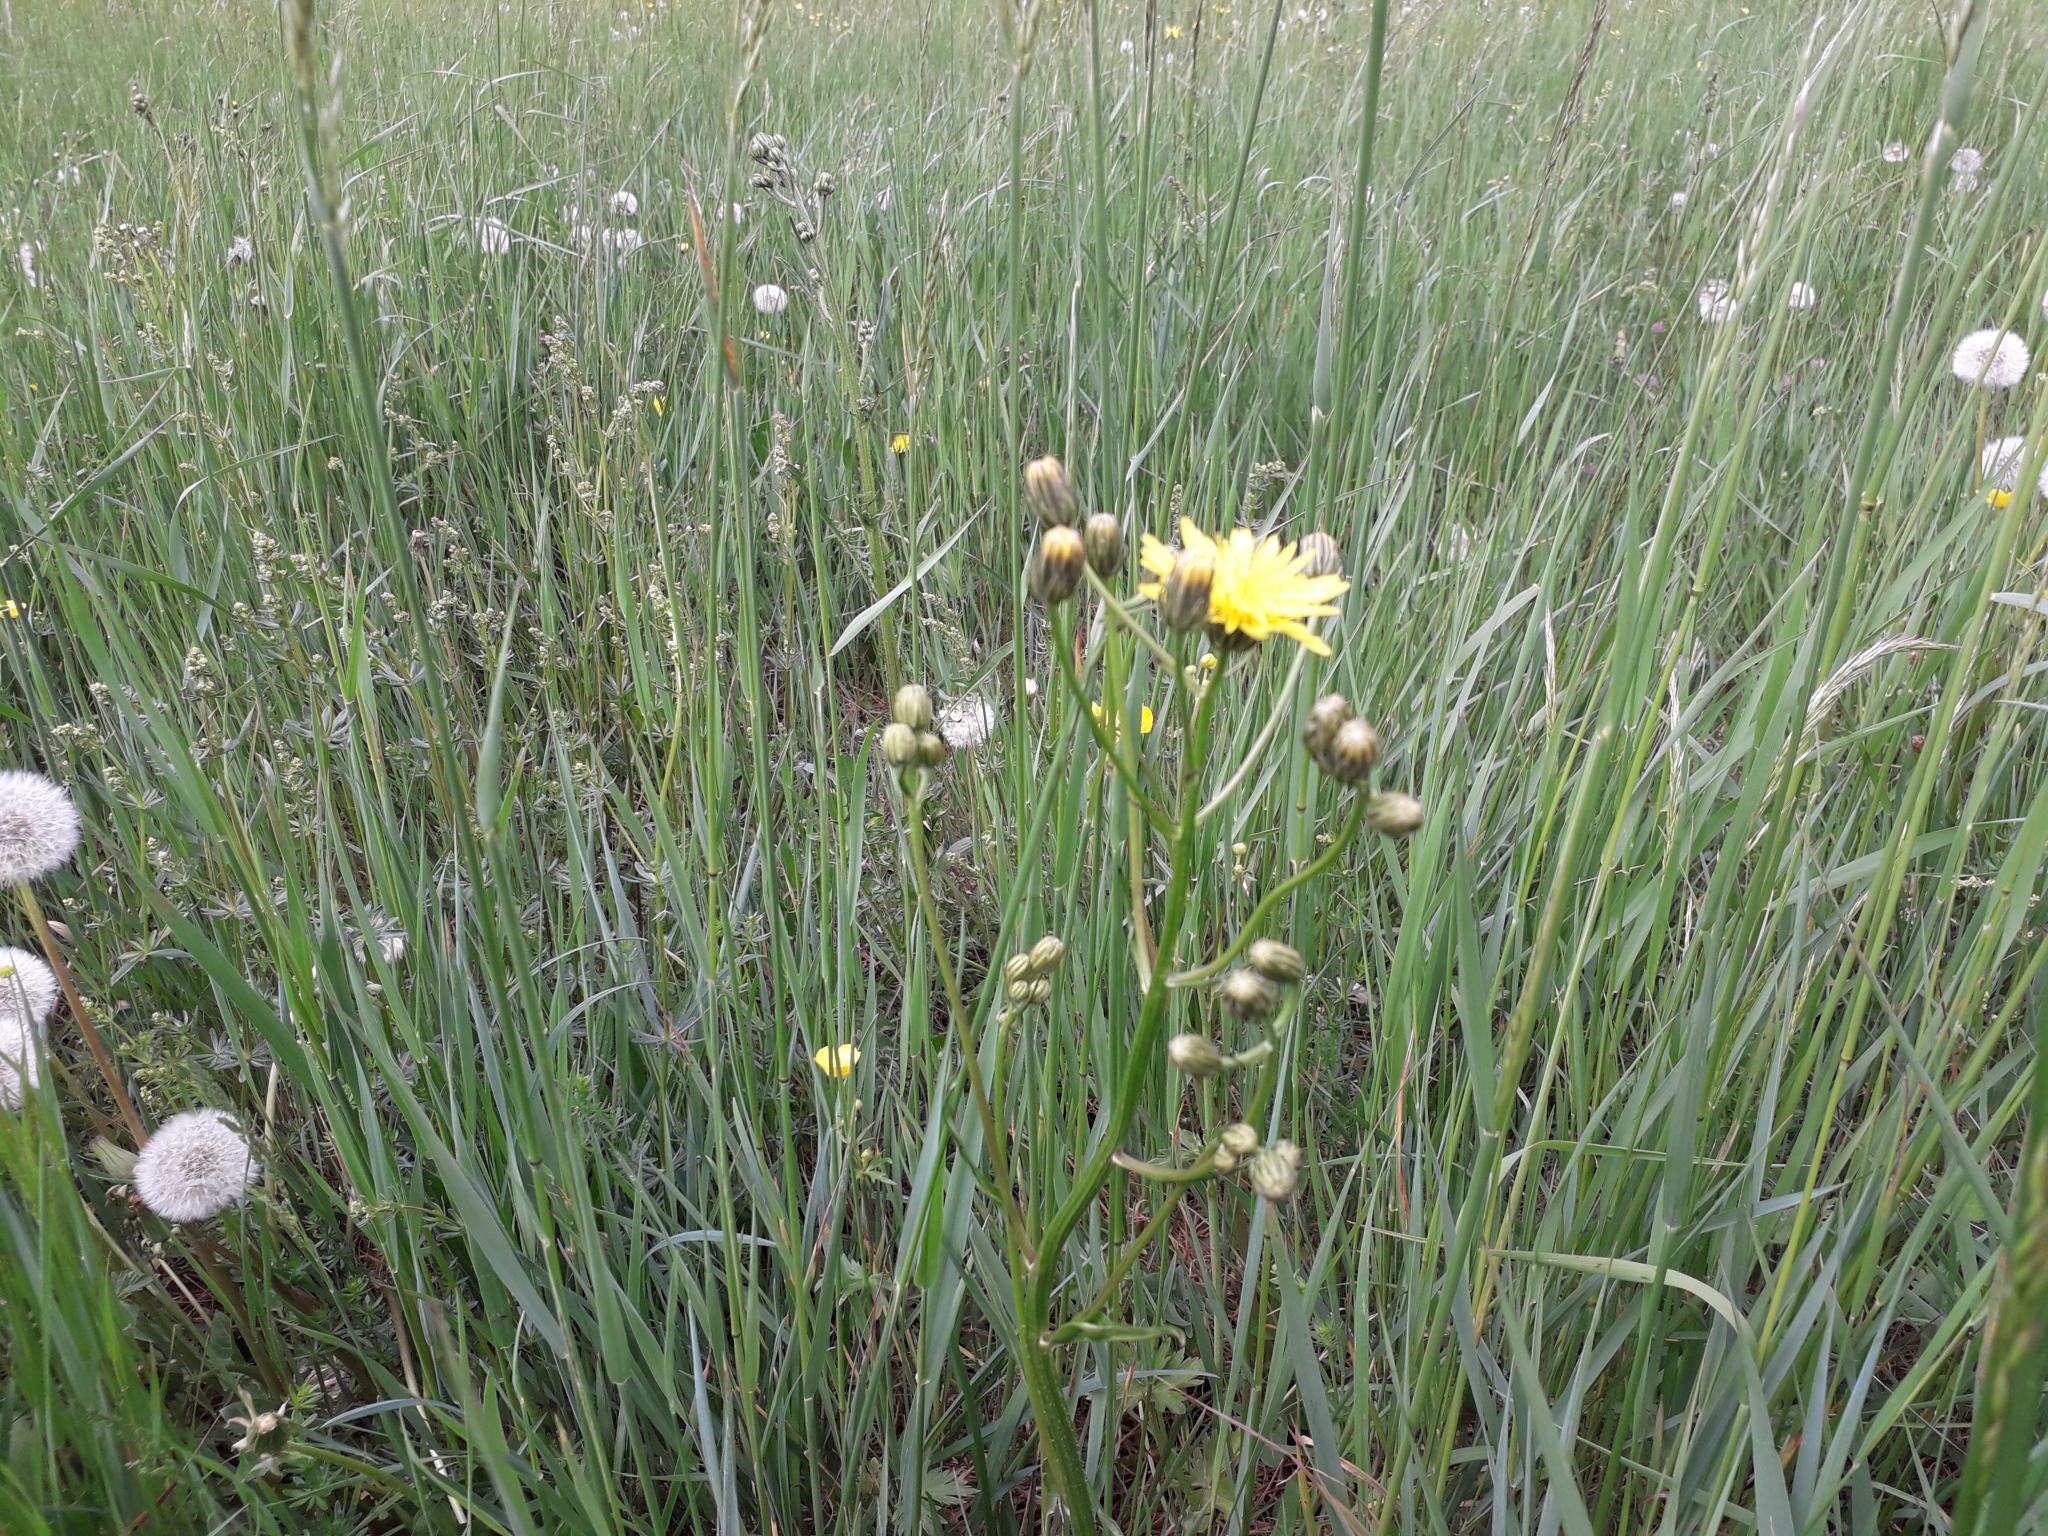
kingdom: Plantae
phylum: Tracheophyta
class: Magnoliopsida
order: Asterales
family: Asteraceae
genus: Crepis
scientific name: Crepis biennis
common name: Rough hawk's-beard
